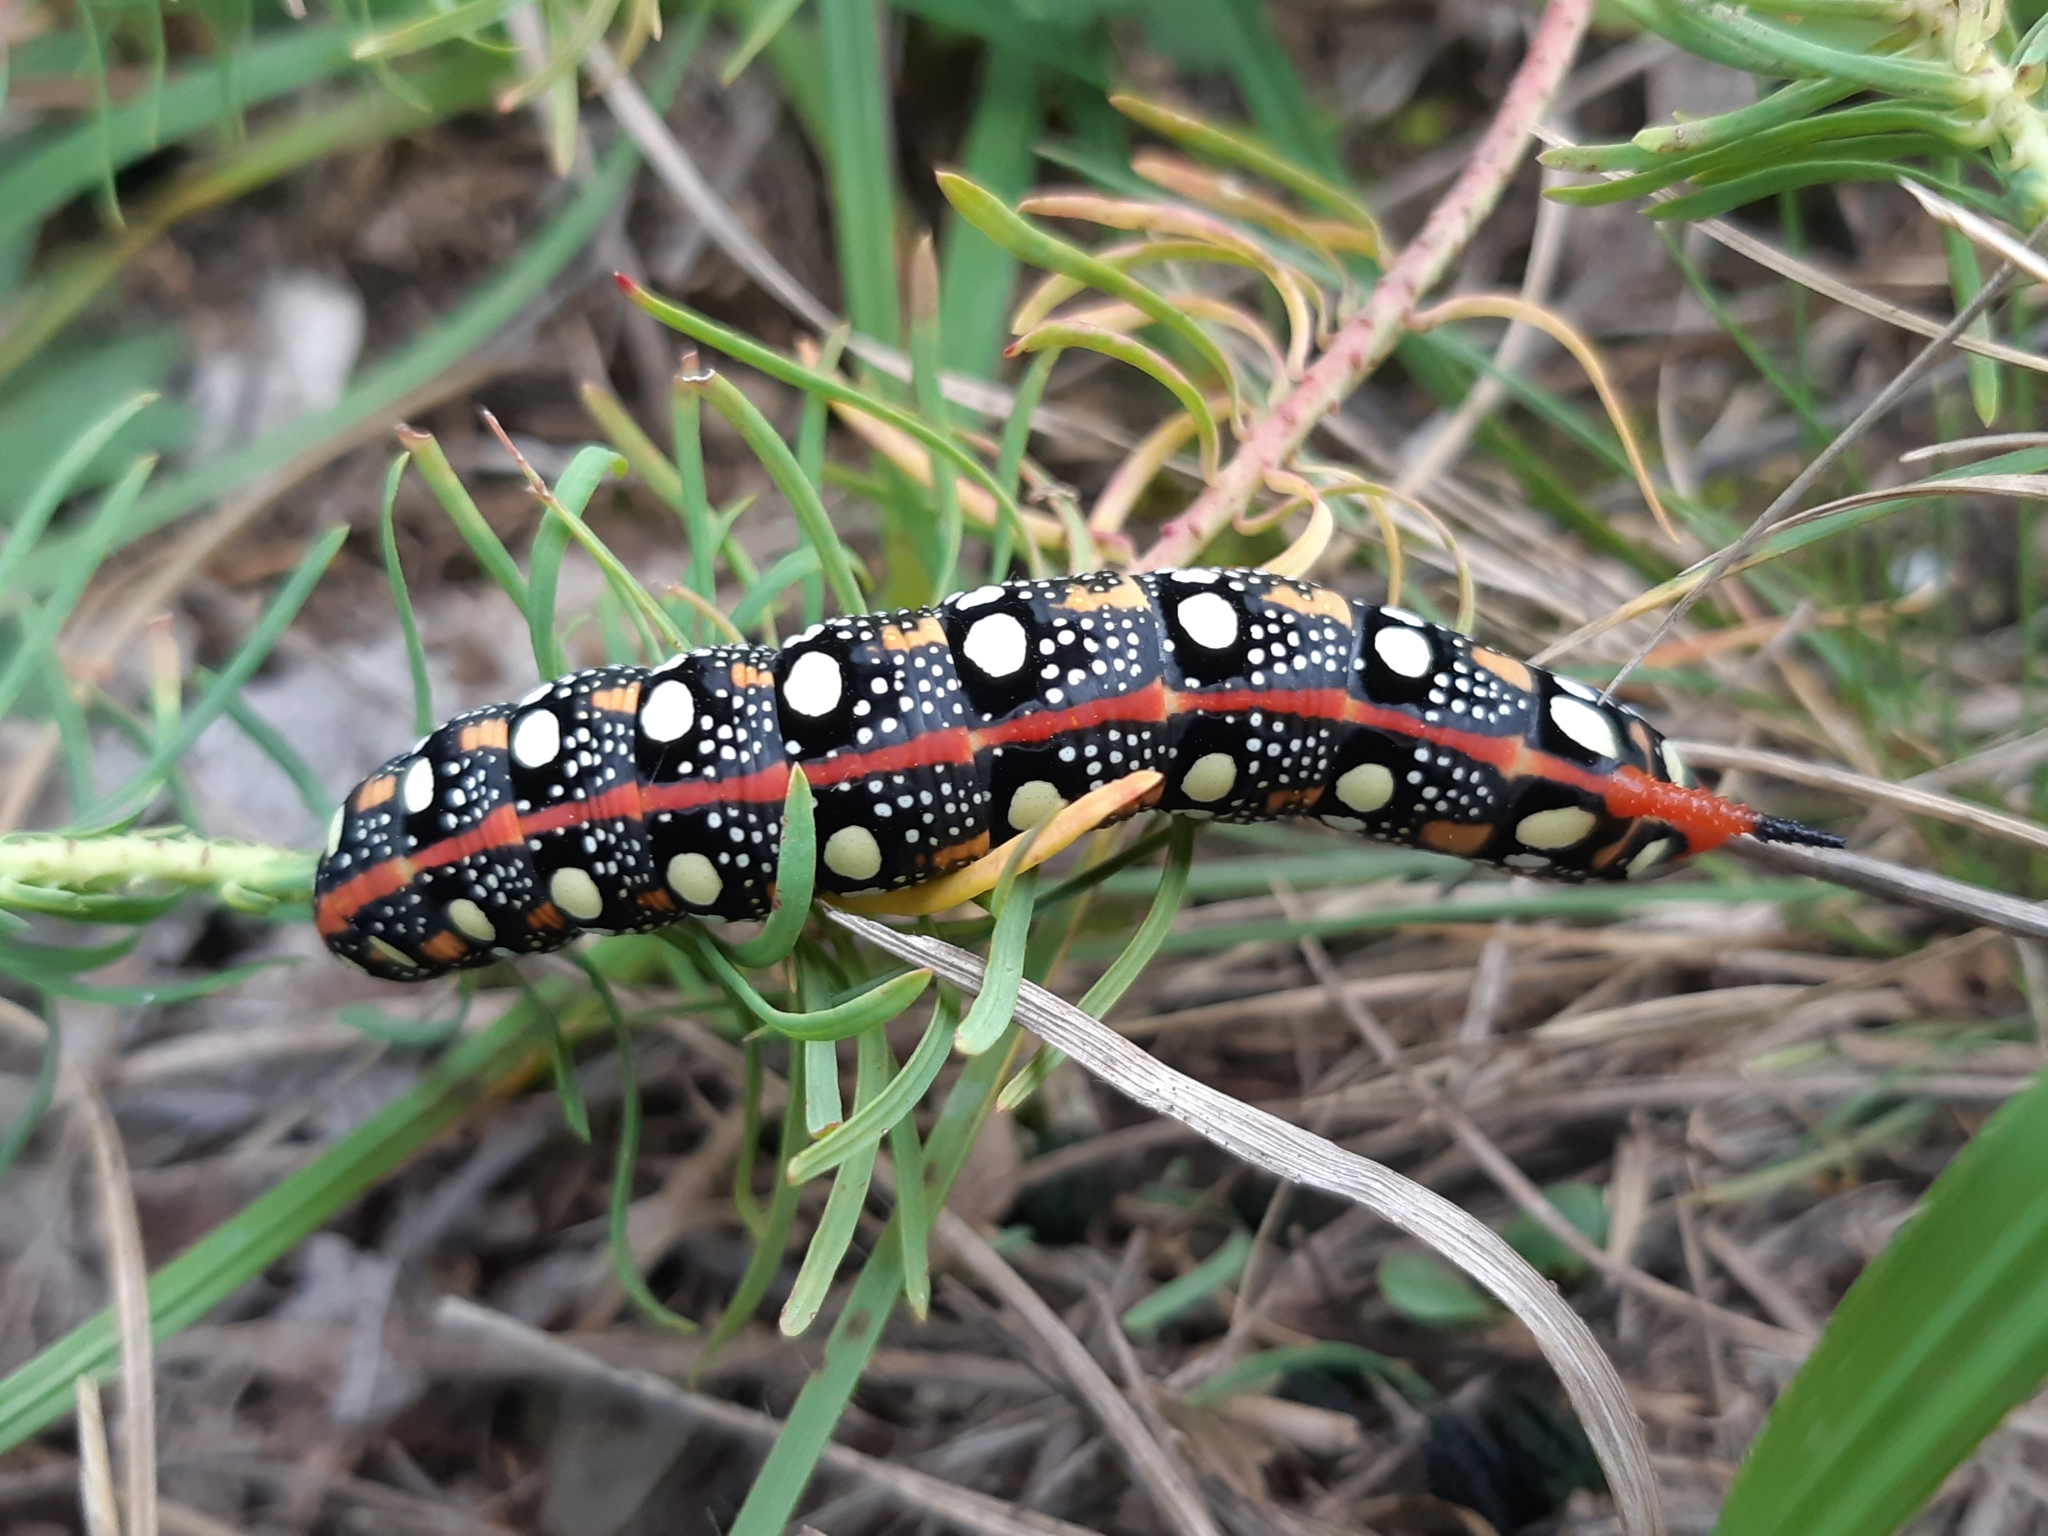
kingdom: Animalia
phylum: Arthropoda
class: Insecta
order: Lepidoptera
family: Sphingidae
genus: Hyles
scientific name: Hyles euphorbiae
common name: Spurge hawk-moth
